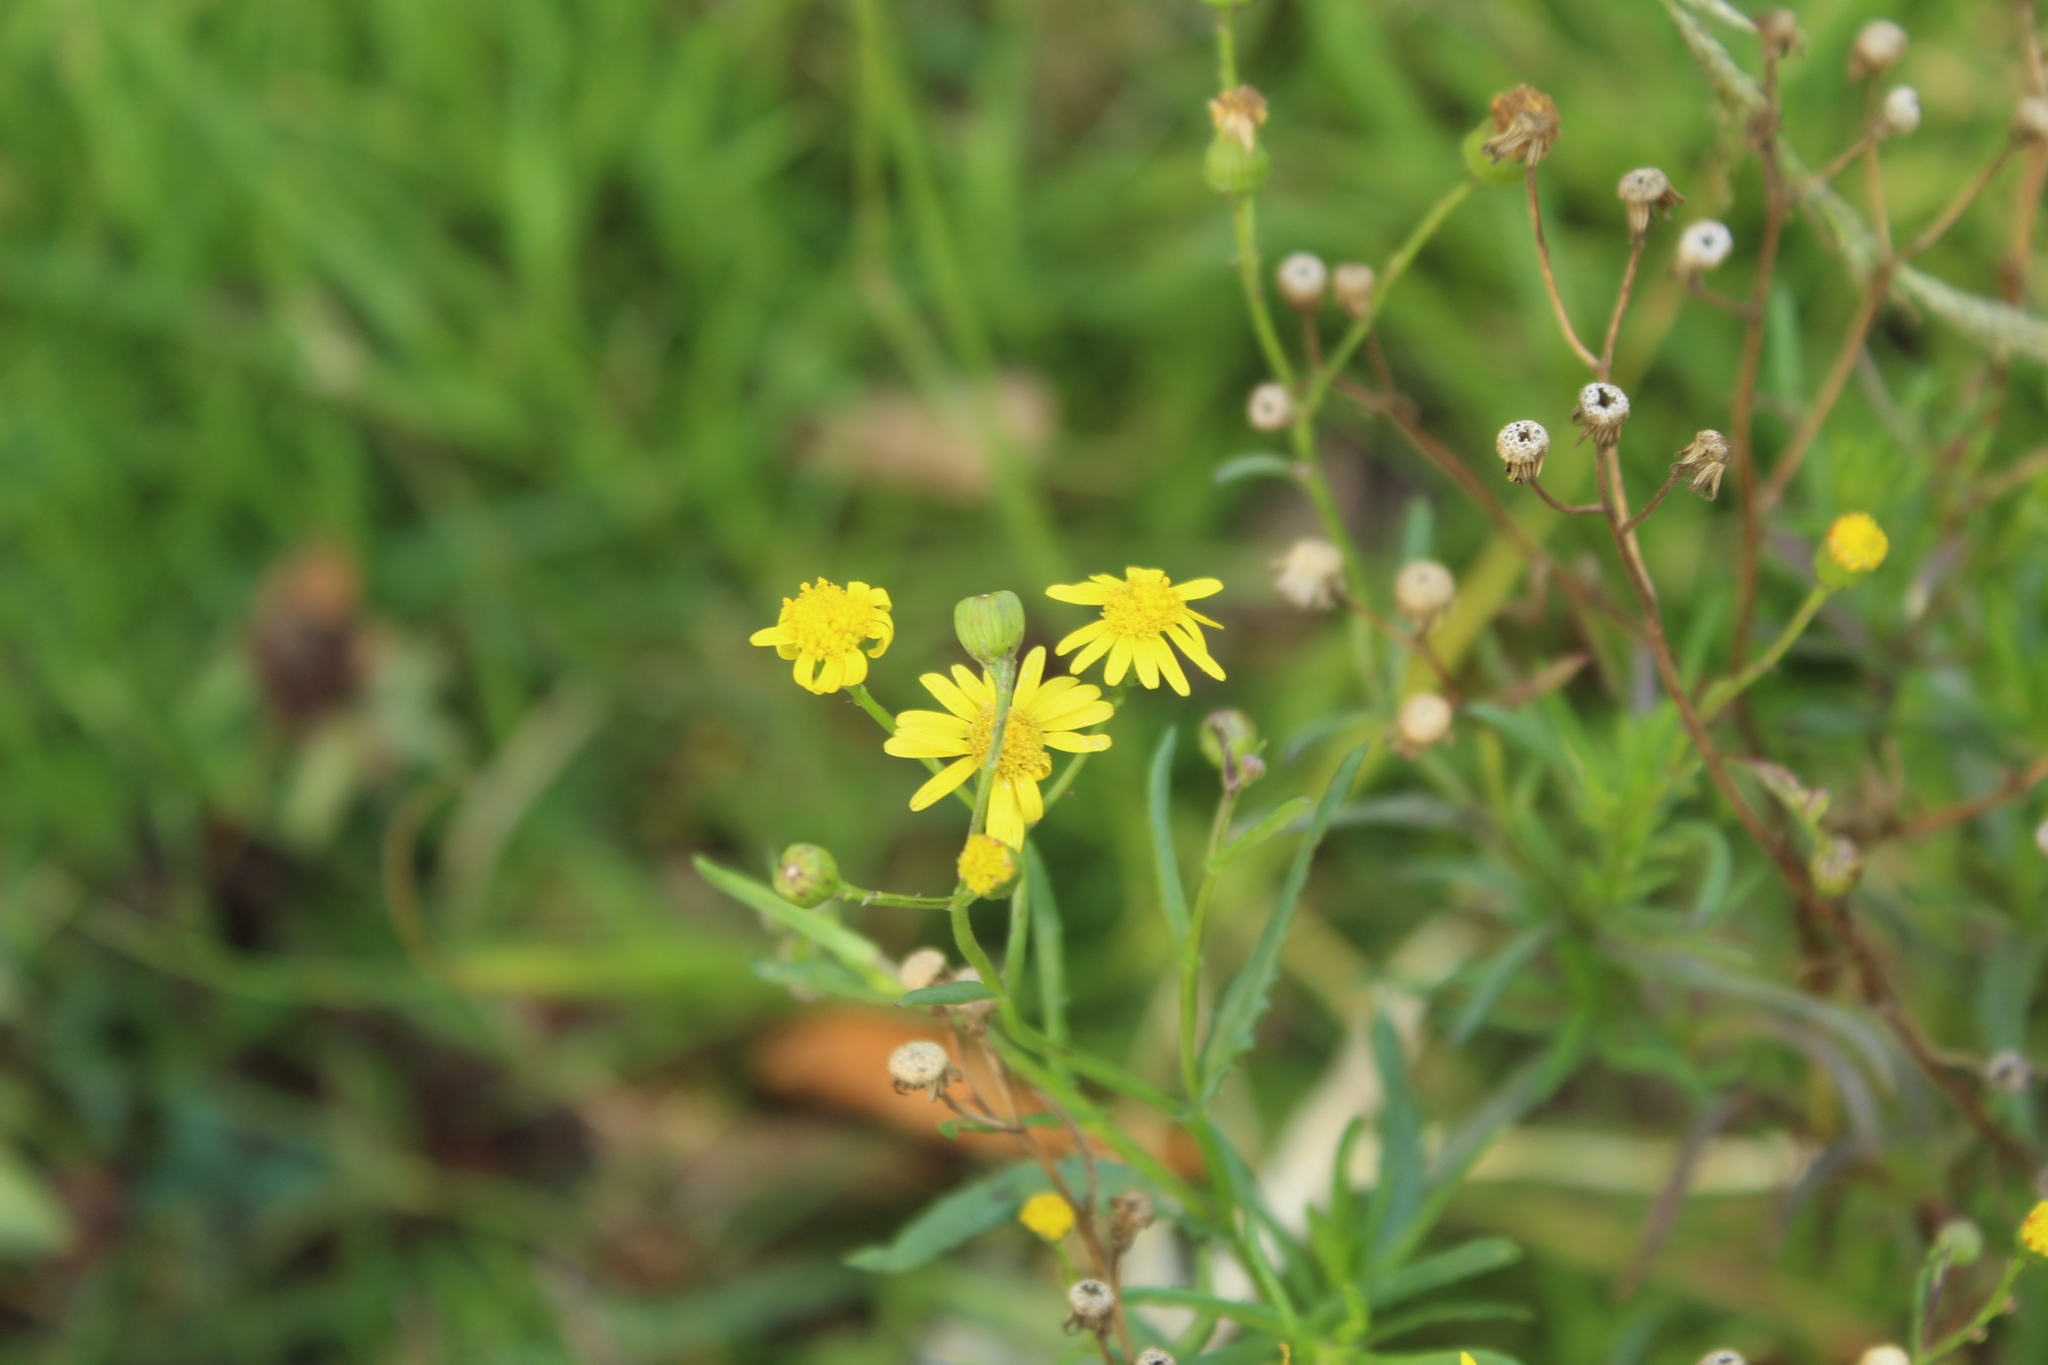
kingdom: Plantae
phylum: Tracheophyta
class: Magnoliopsida
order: Asterales
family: Asteraceae
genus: Senecio
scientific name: Senecio madagascariensis
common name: Madagascar ragwort
